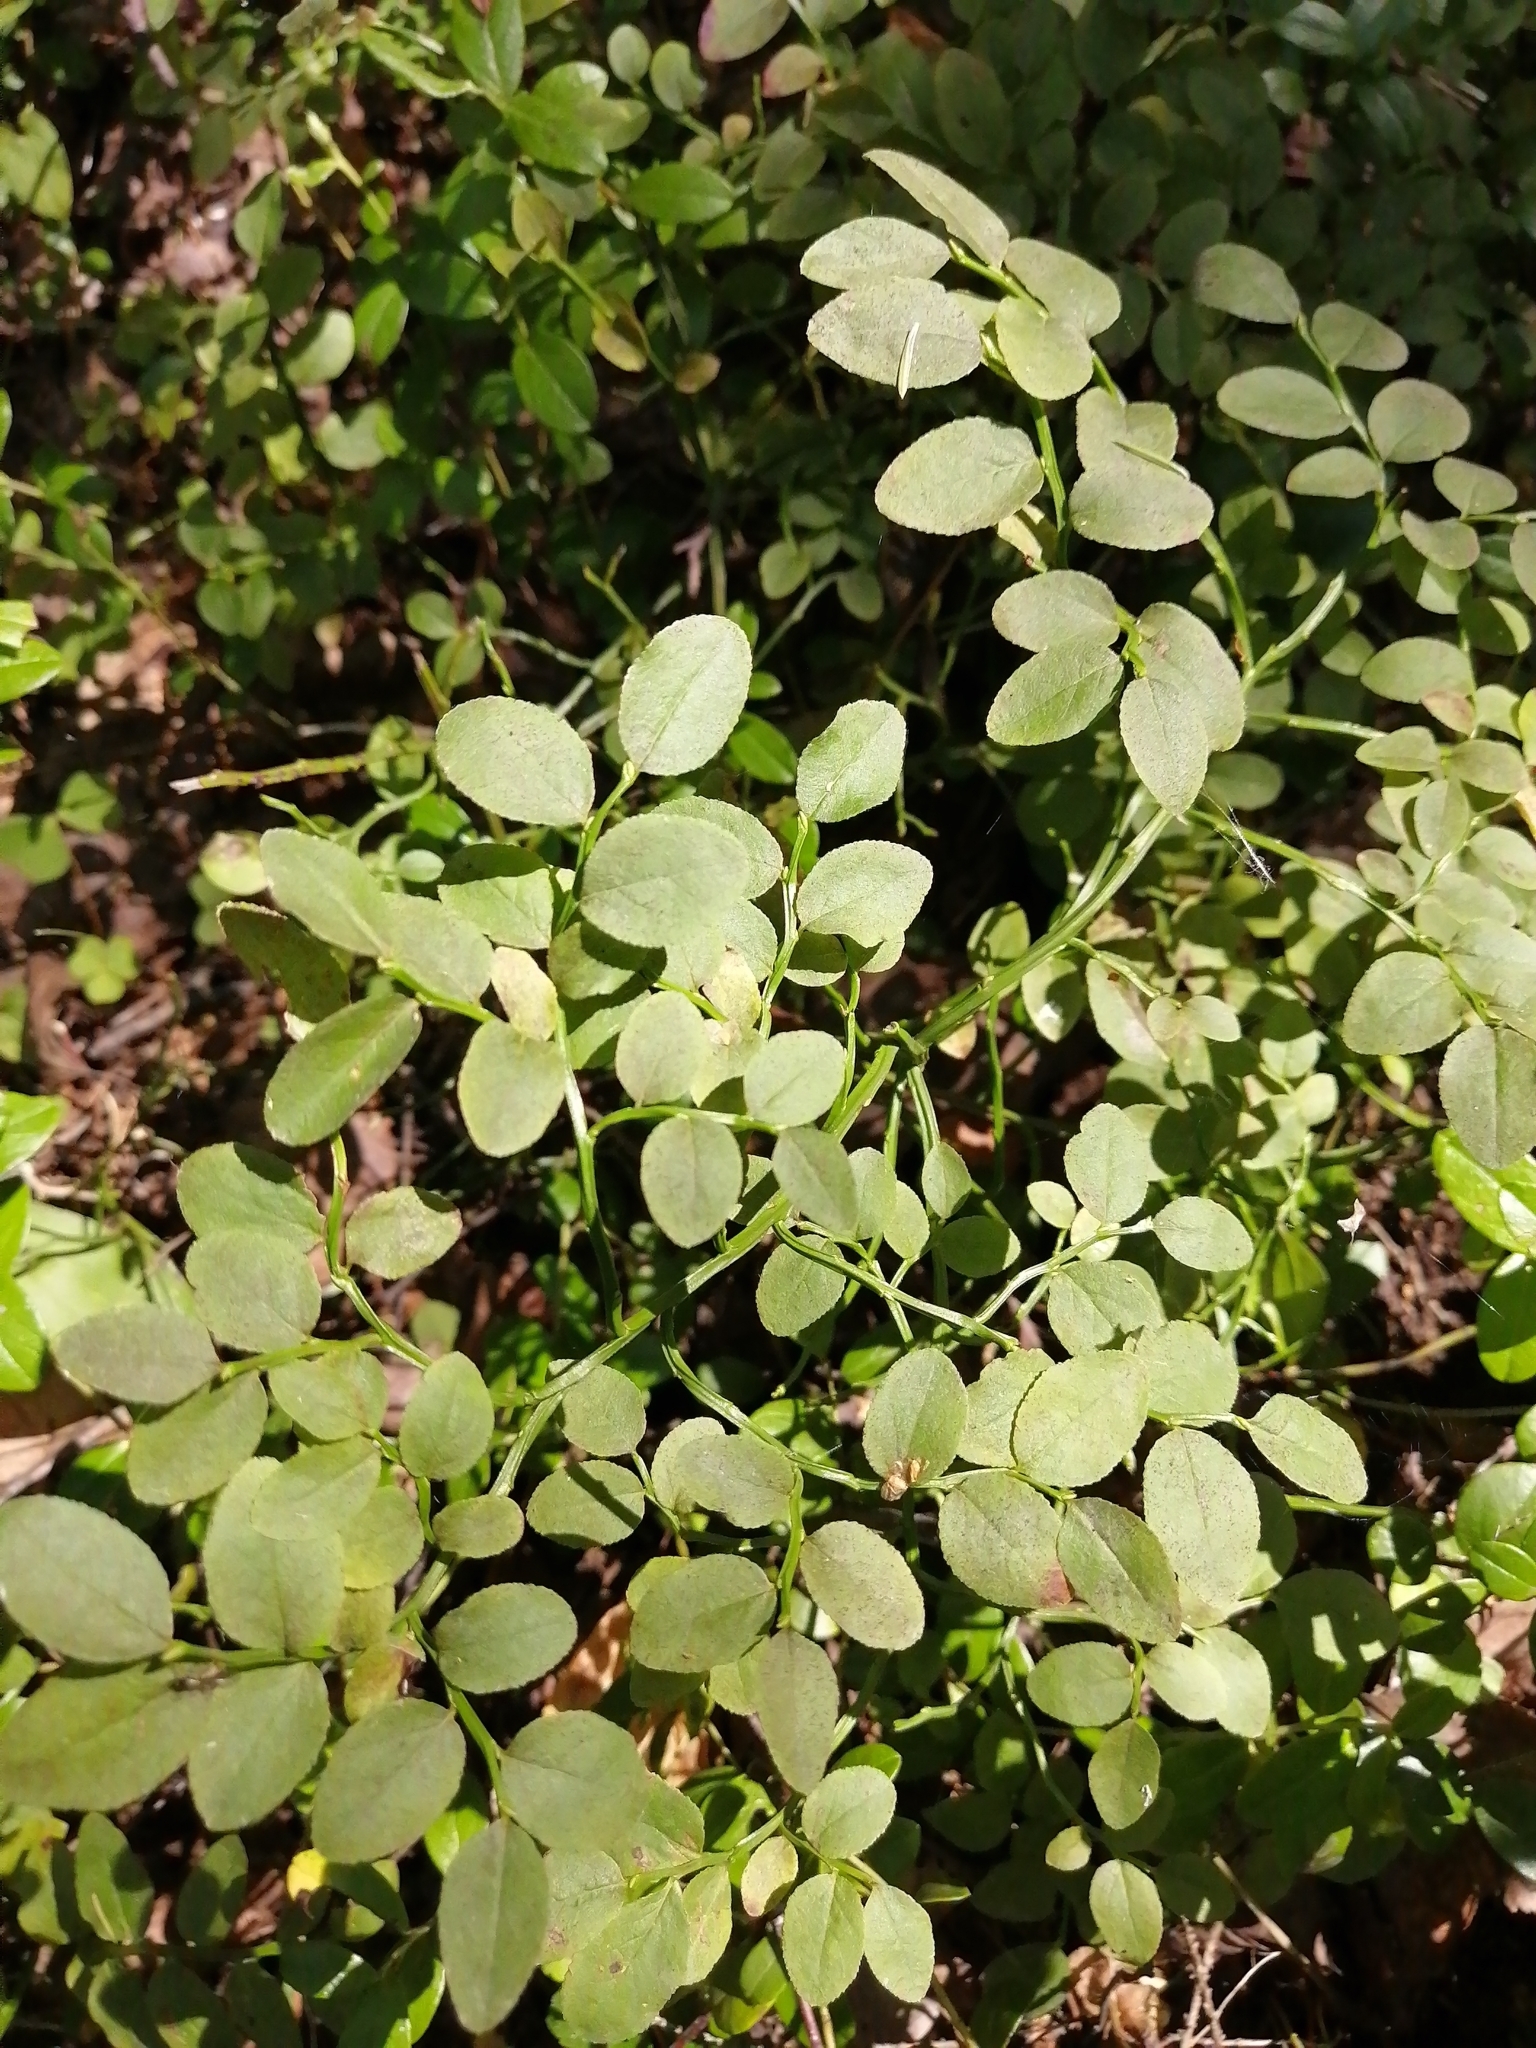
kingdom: Plantae
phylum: Tracheophyta
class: Magnoliopsida
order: Ericales
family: Ericaceae
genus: Vaccinium
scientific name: Vaccinium myrtillus
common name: Bilberry
